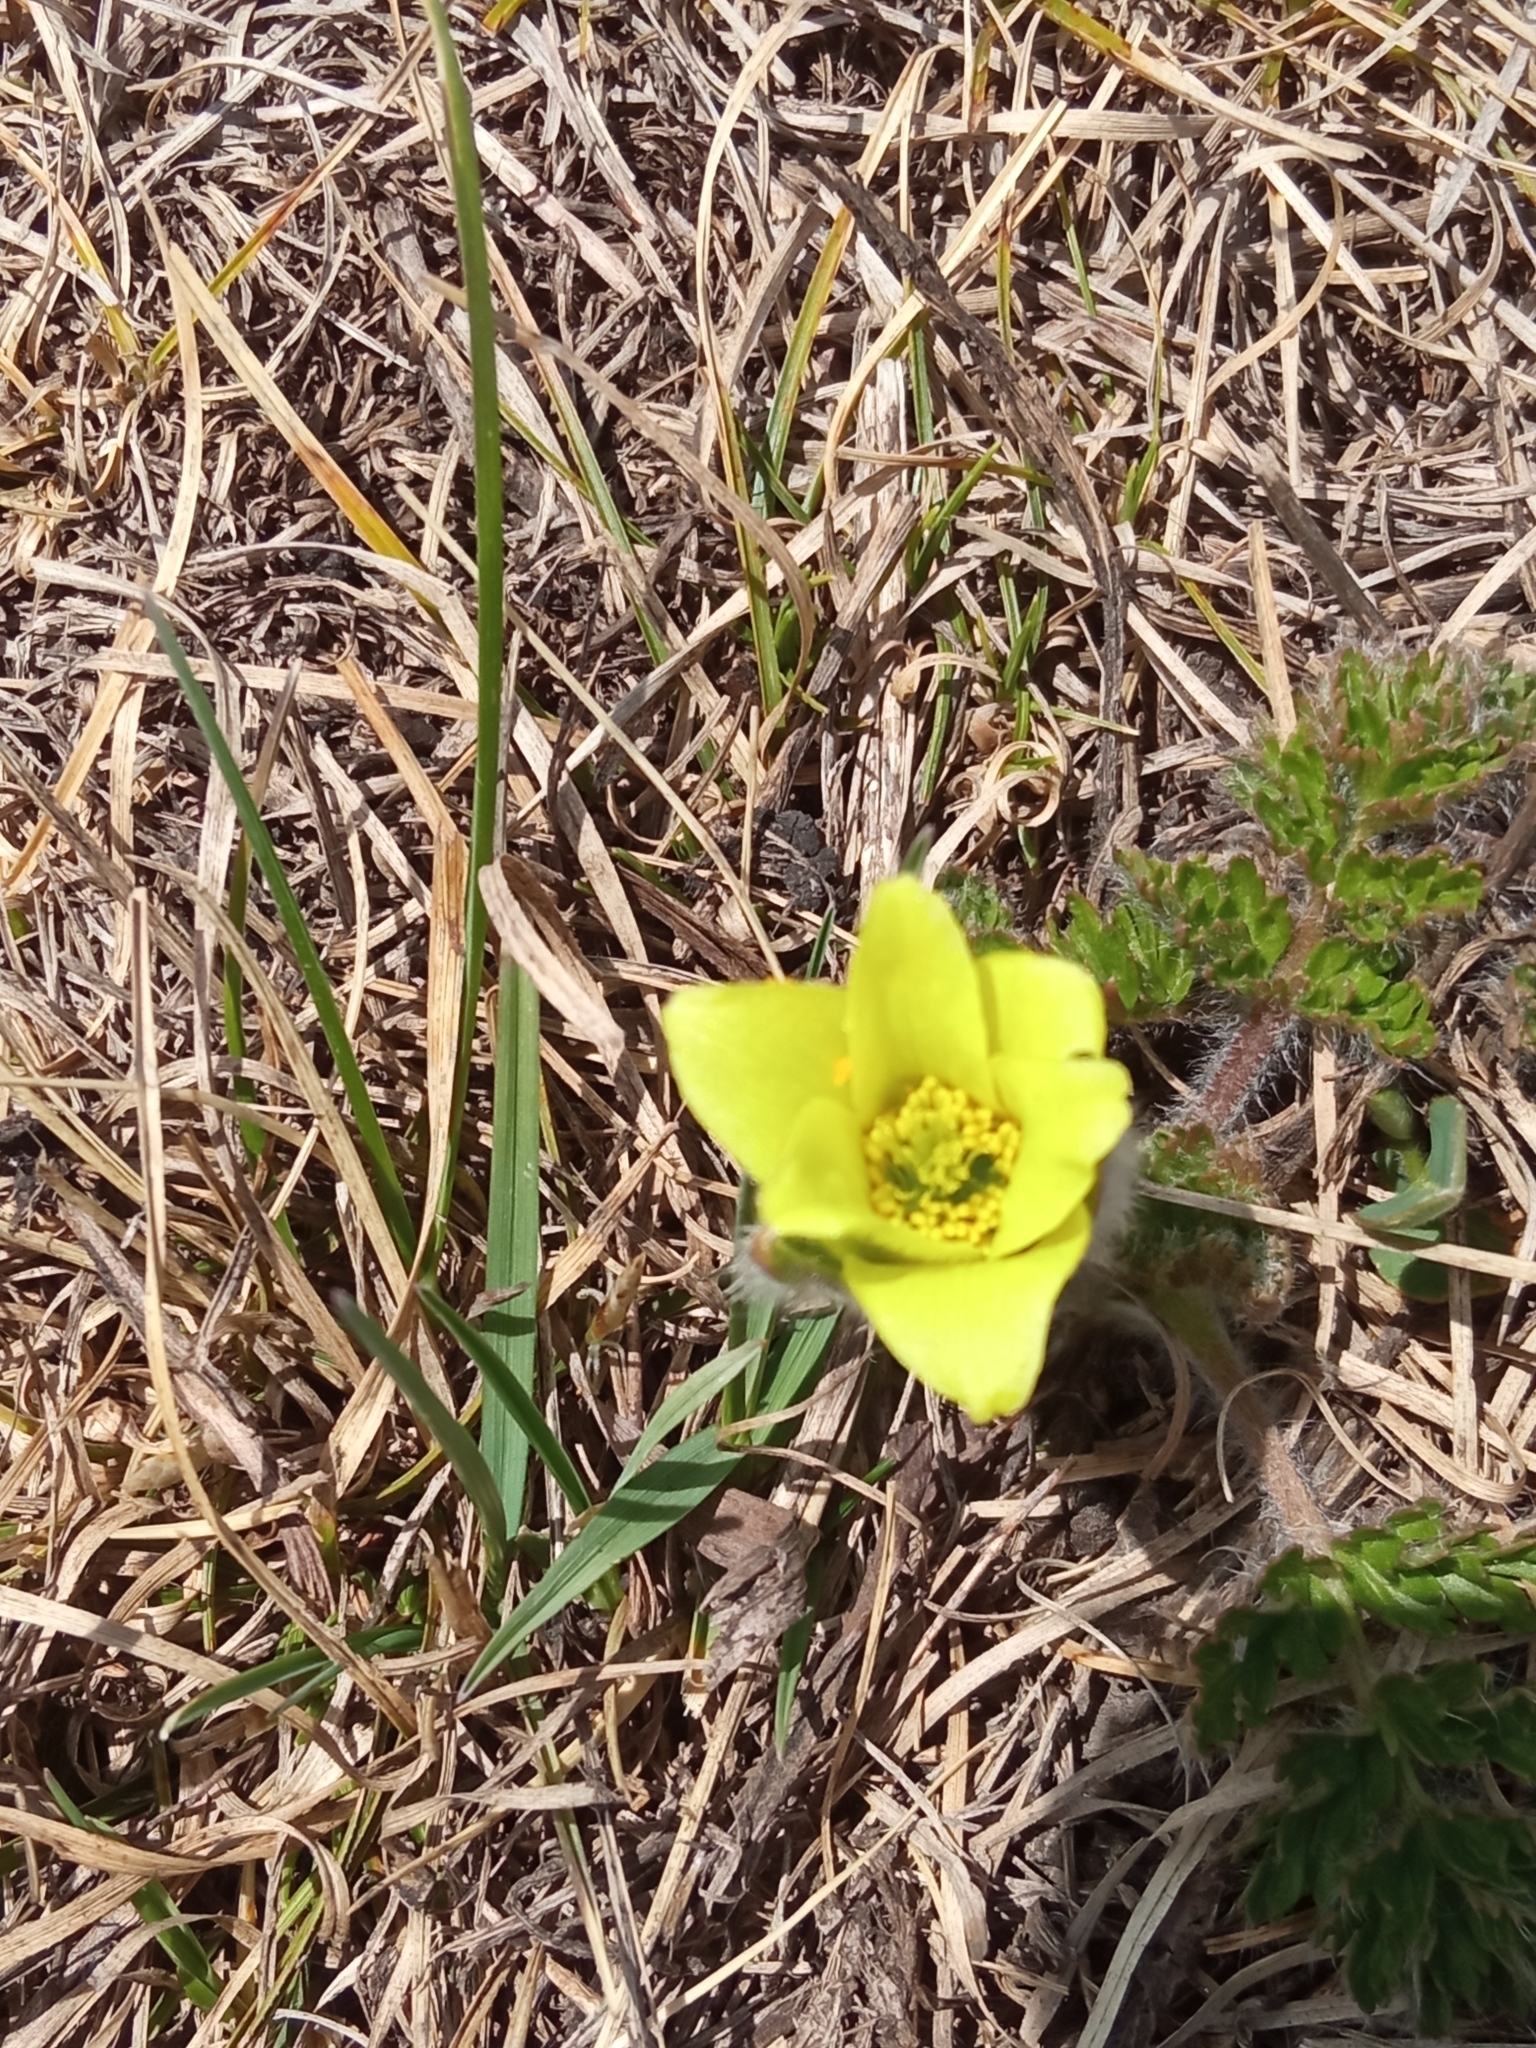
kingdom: Plantae
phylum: Tracheophyta
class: Magnoliopsida
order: Ranunculales
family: Ranunculaceae
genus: Pulsatilla
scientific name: Pulsatilla albana
